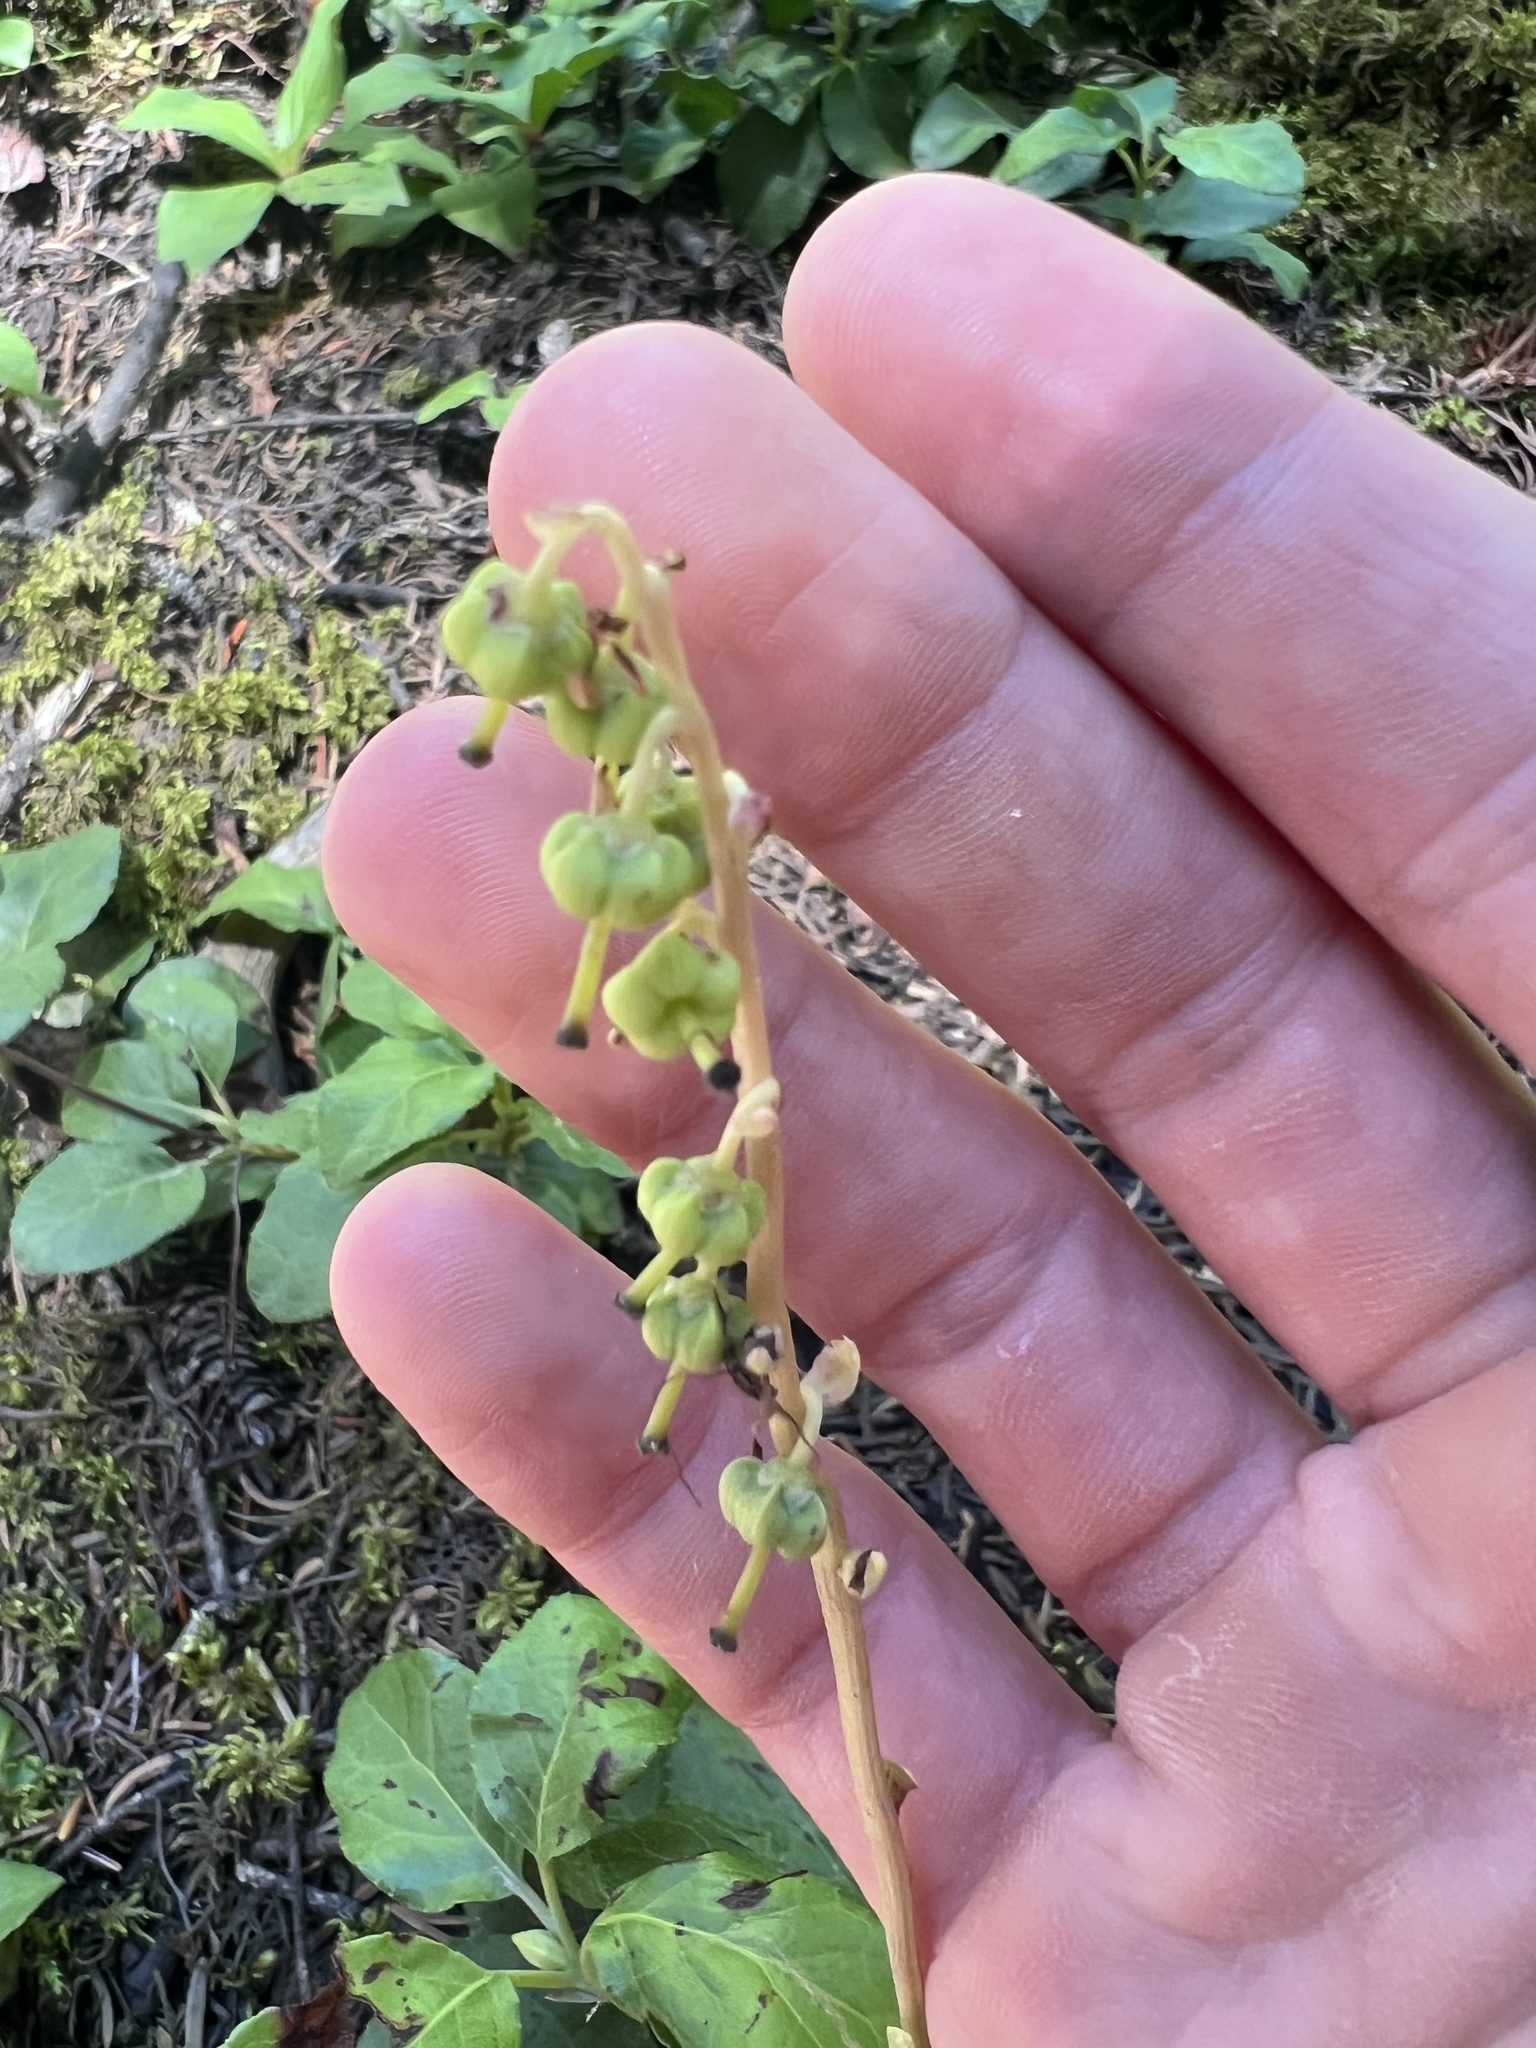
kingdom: Plantae
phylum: Tracheophyta
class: Magnoliopsida
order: Ericales
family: Ericaceae
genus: Orthilia
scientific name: Orthilia secunda
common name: One-sided orthilia
